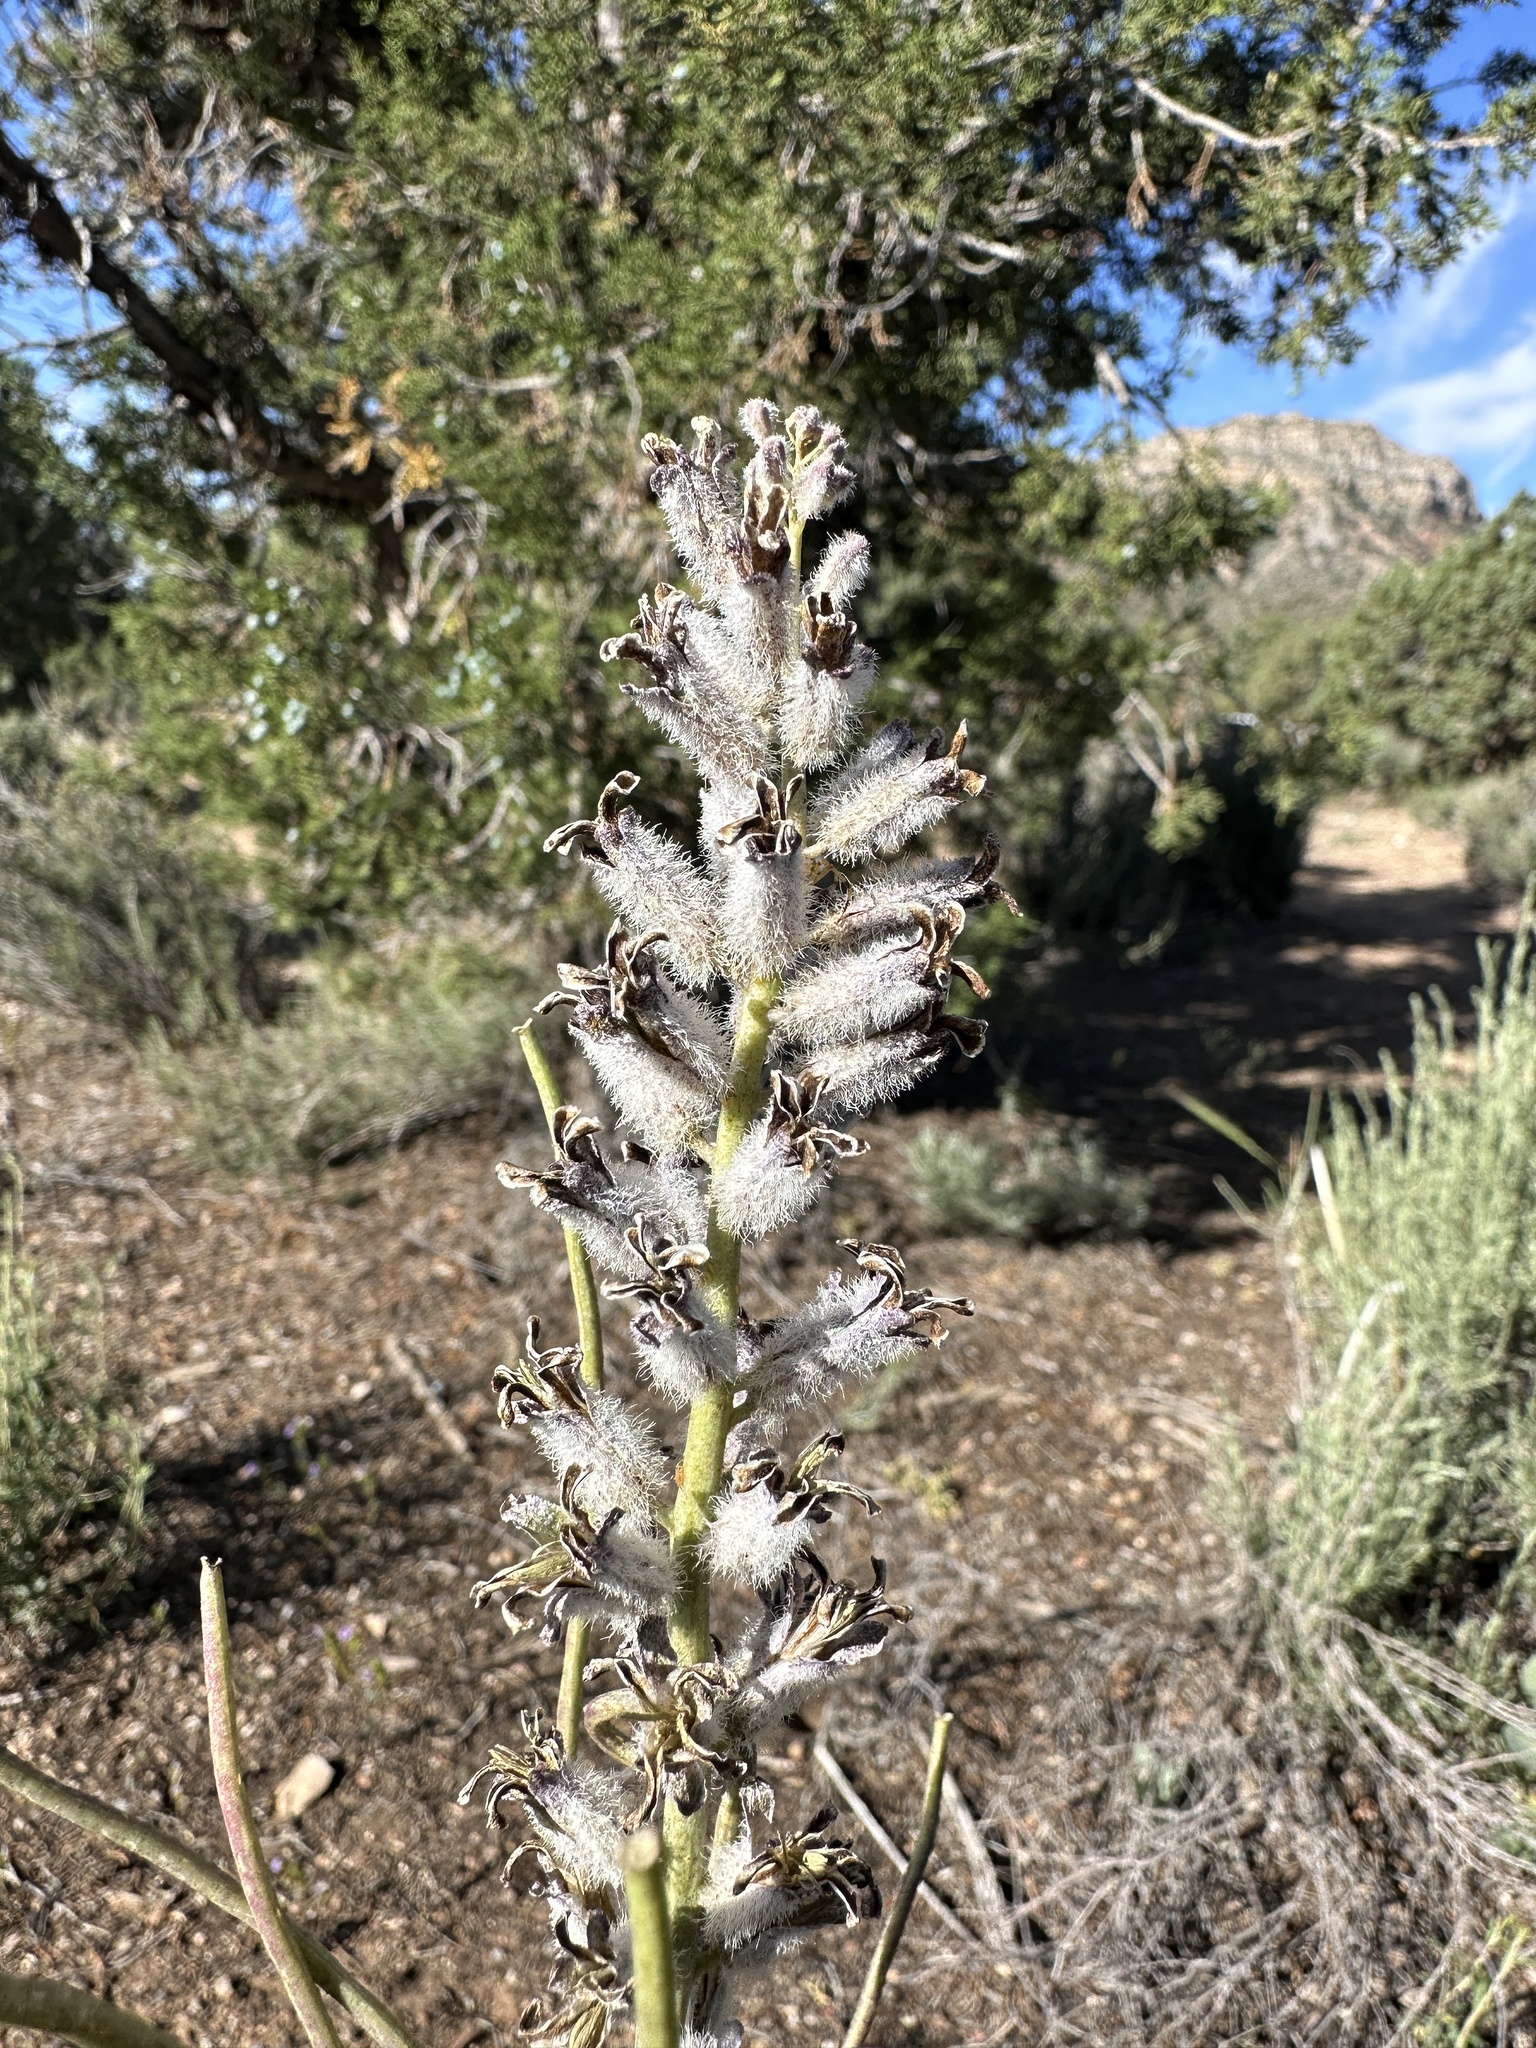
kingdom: Plantae
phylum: Tracheophyta
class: Magnoliopsida
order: Brassicales
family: Brassicaceae
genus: Streptanthus
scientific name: Streptanthus crassicaulis
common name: Thick-stem wild cabbage
